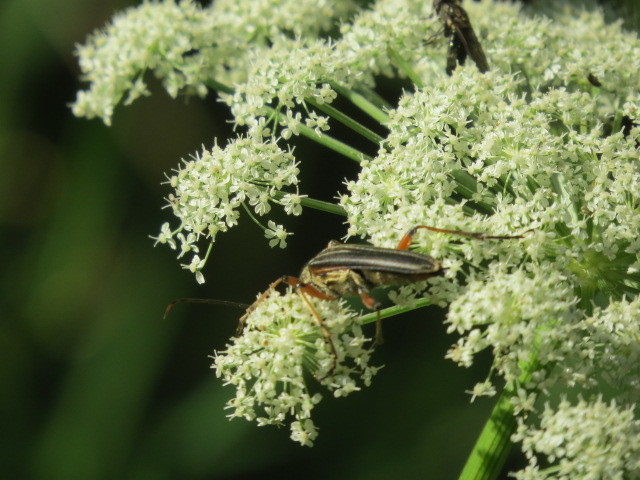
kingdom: Animalia
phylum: Arthropoda
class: Insecta
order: Coleoptera
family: Cerambycidae
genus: Stenocorus
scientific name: Stenocorus meridianus
